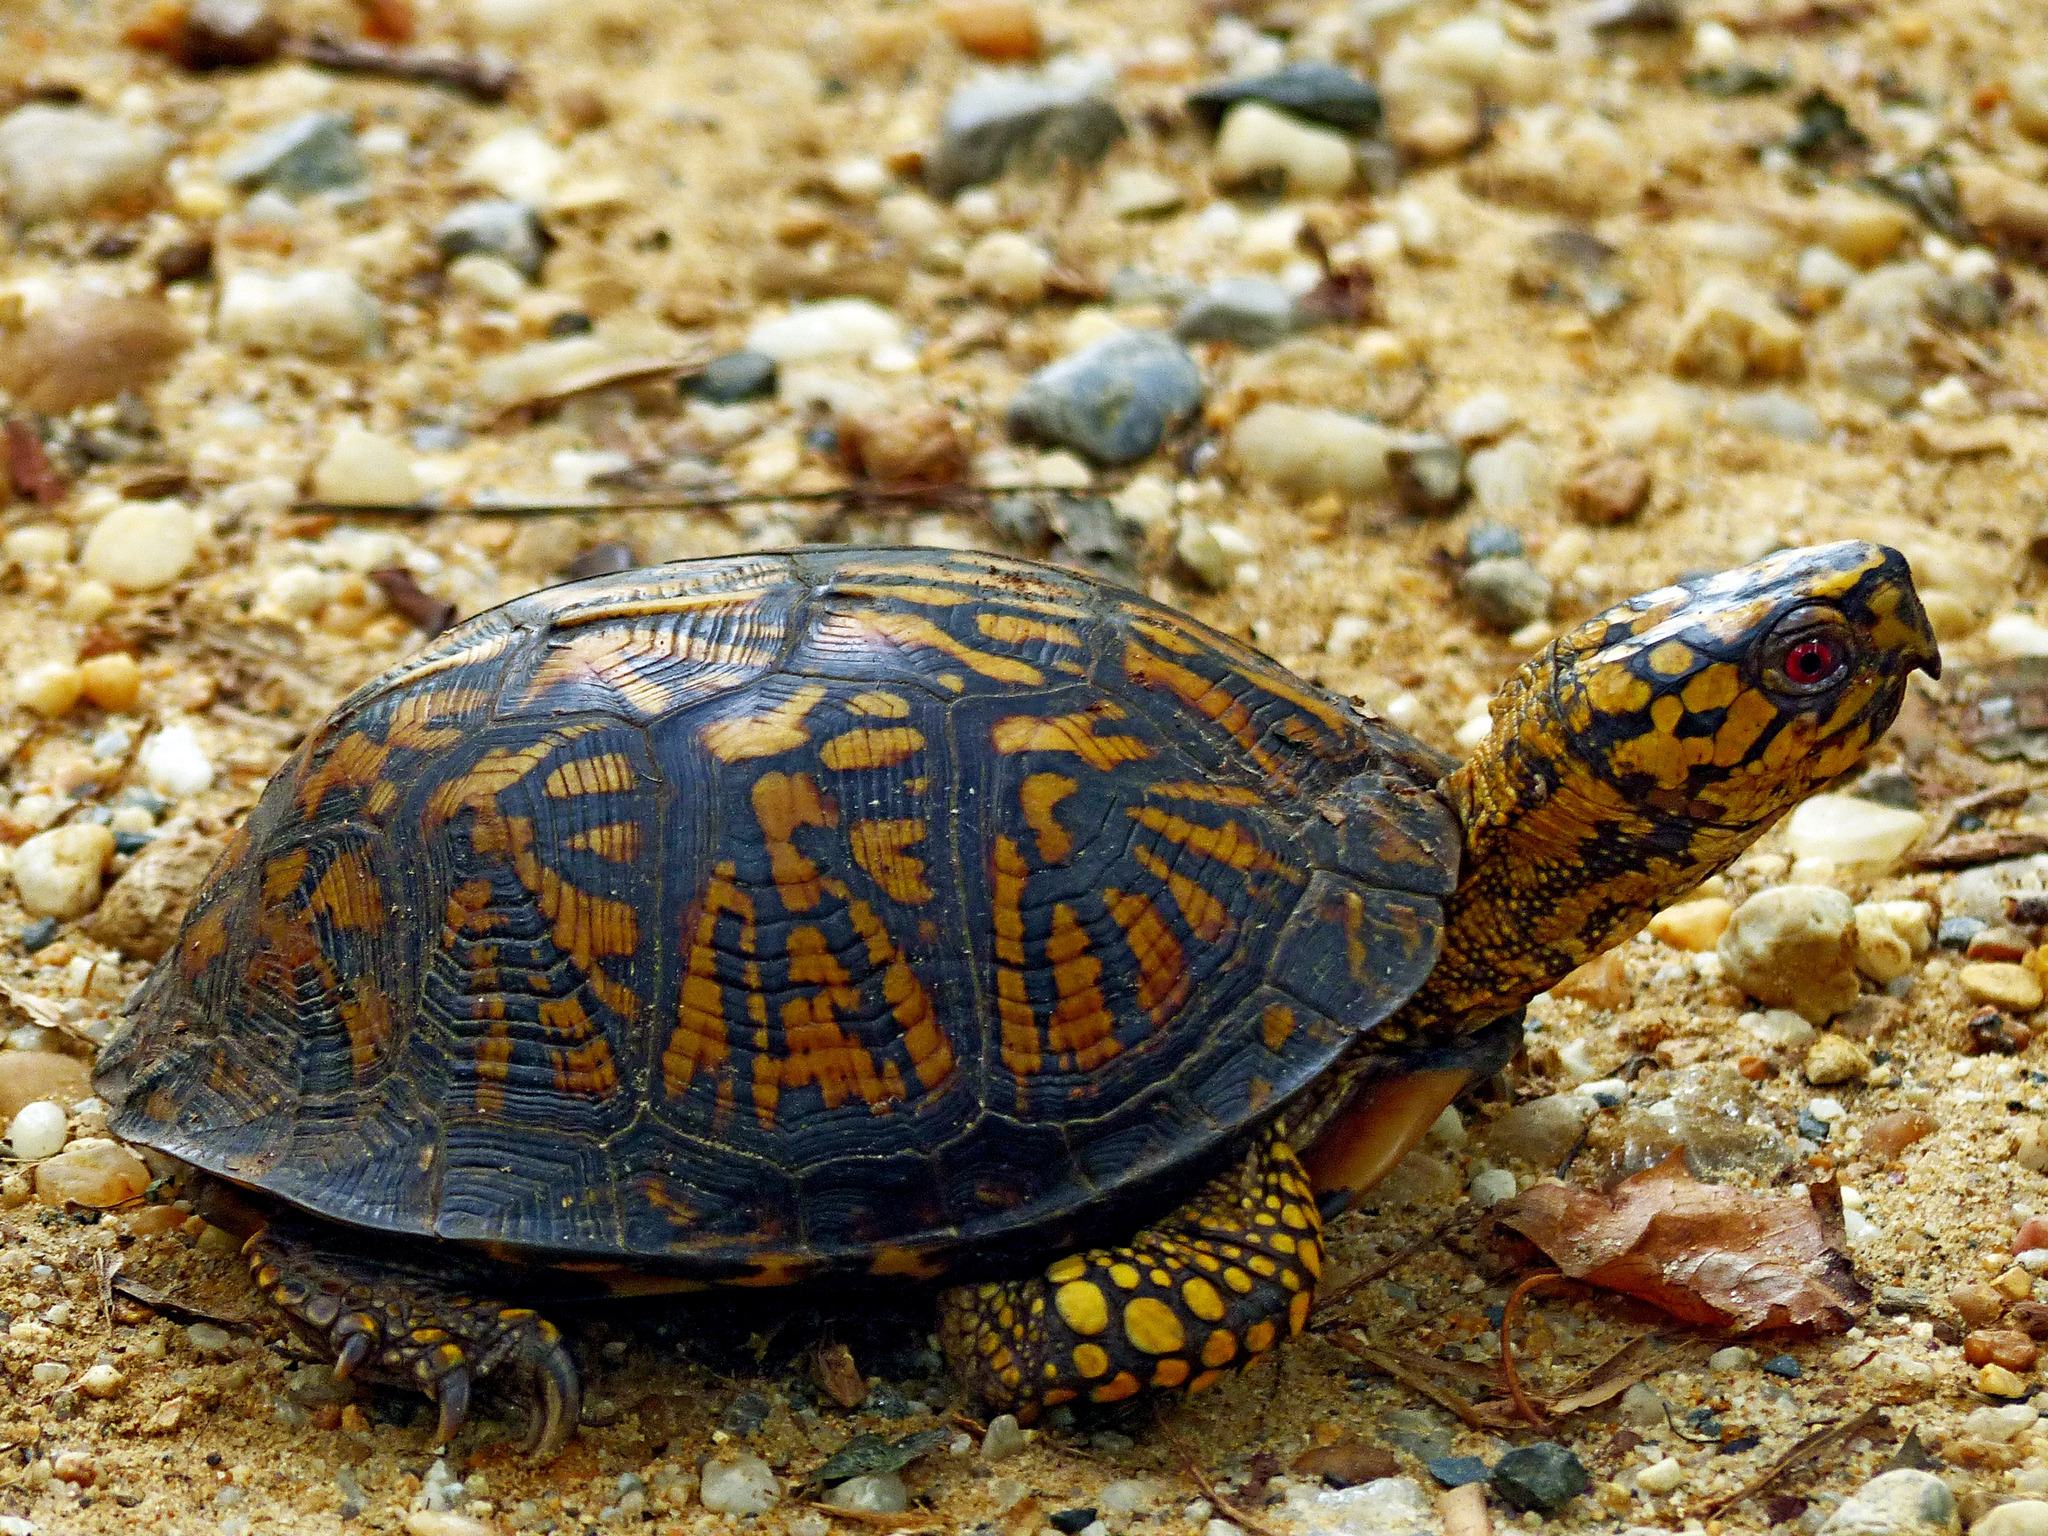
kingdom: Animalia
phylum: Chordata
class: Testudines
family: Emydidae
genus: Terrapene
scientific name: Terrapene carolina
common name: Common box turtle
